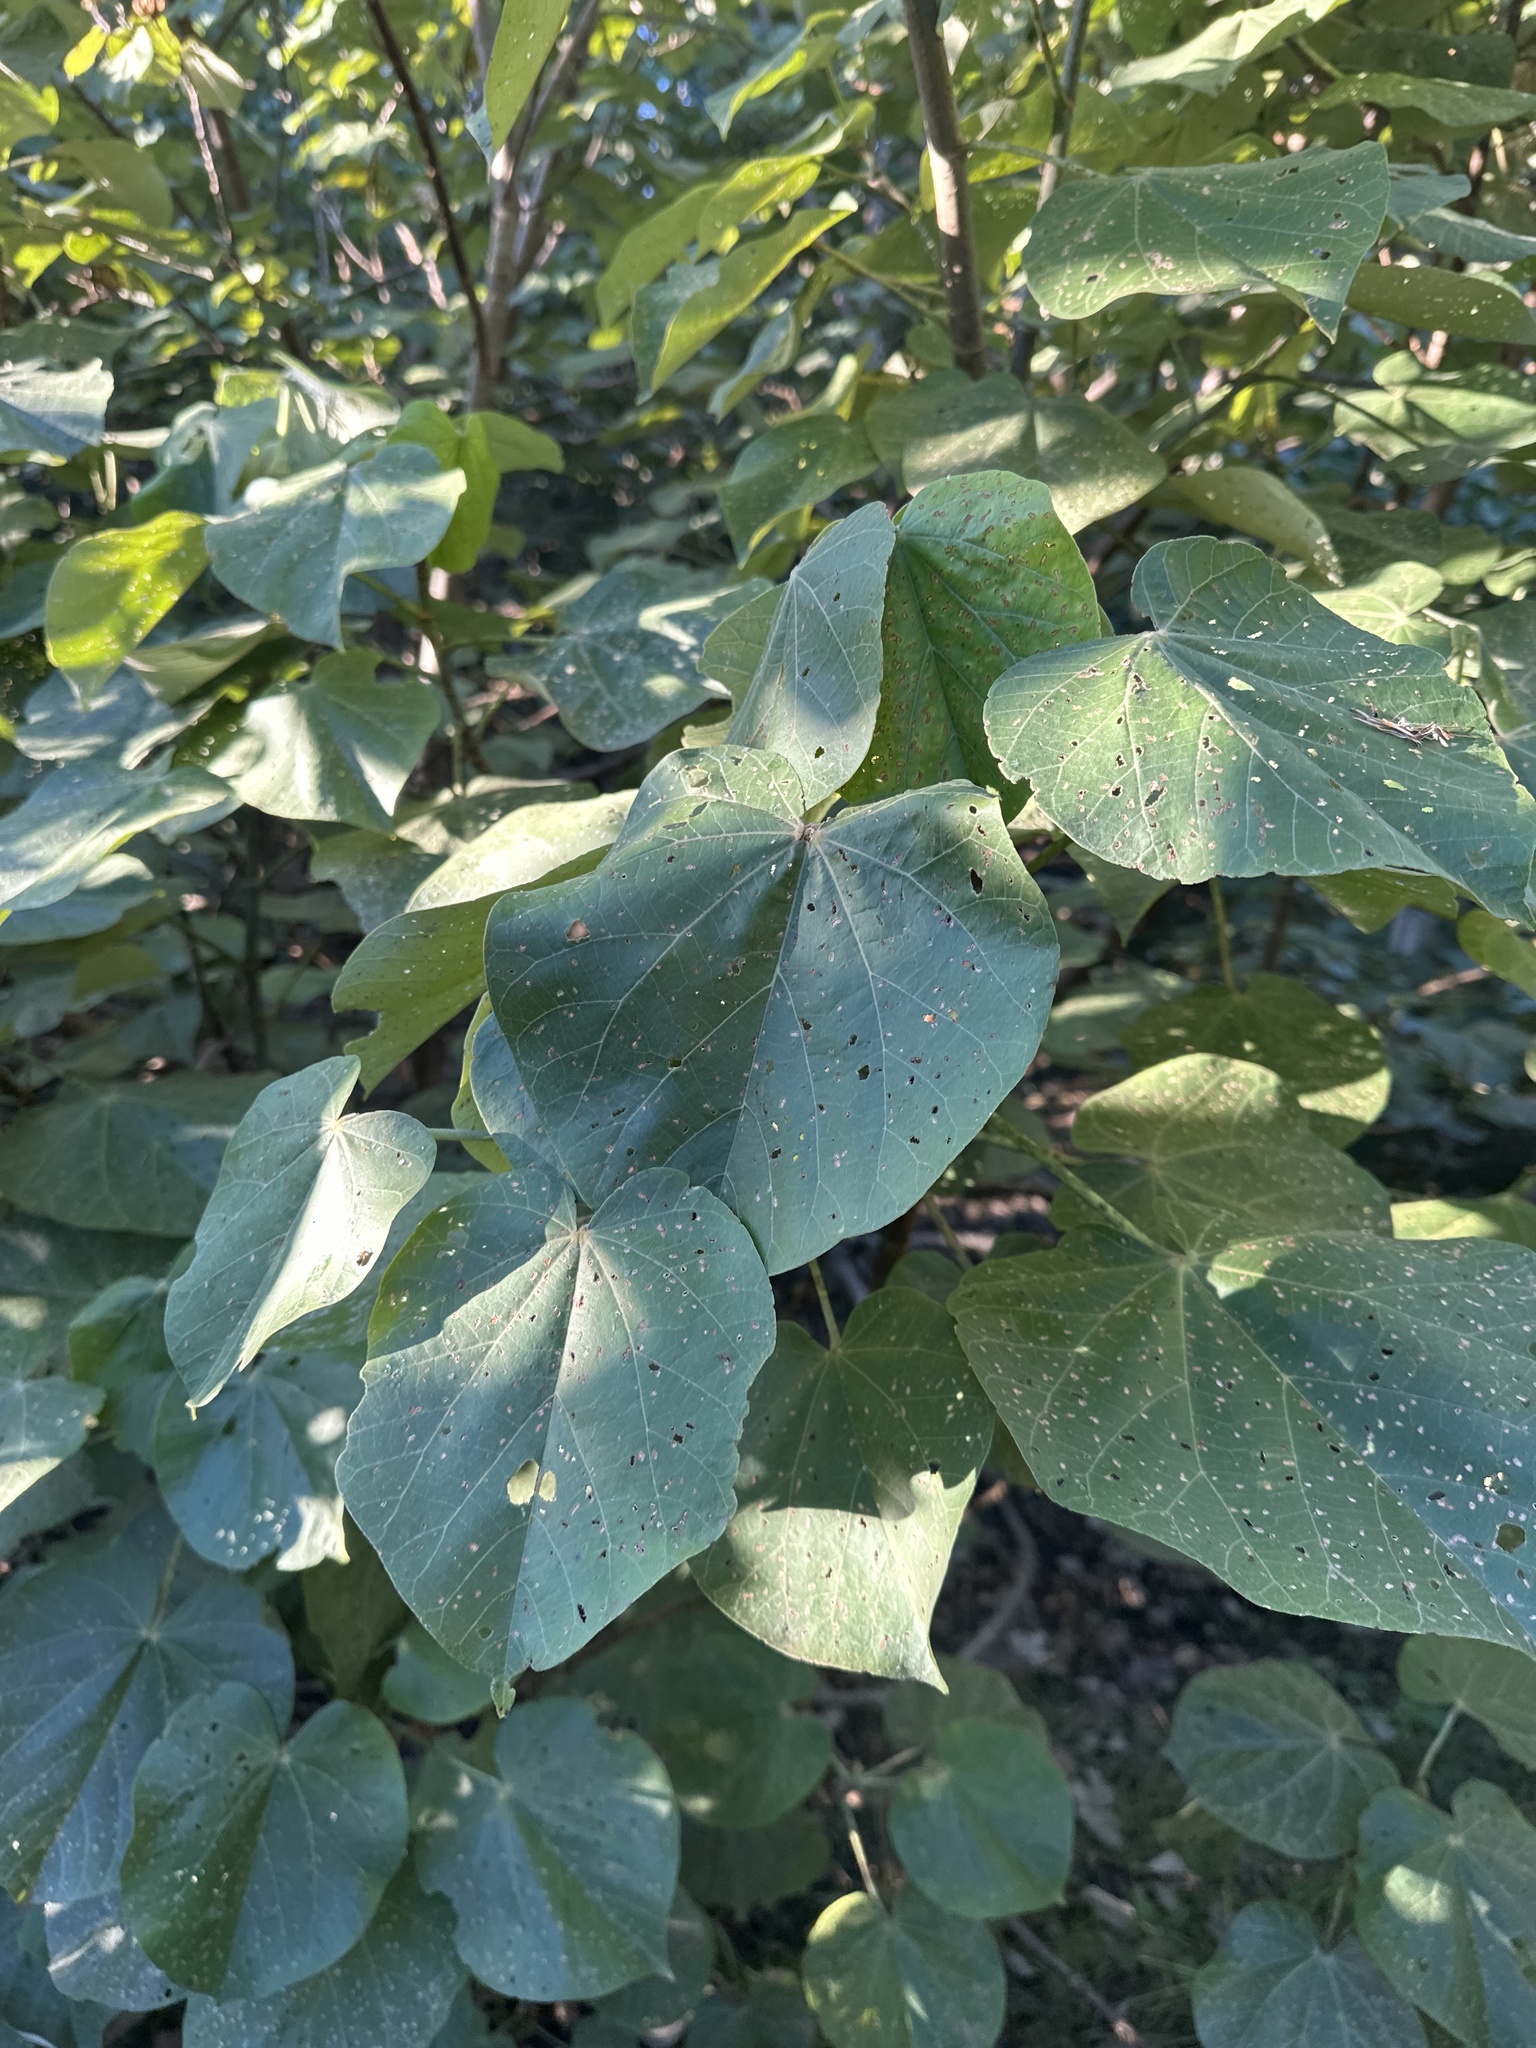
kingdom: Plantae
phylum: Tracheophyta
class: Magnoliopsida
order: Malvales
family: Malvaceae
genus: Talipariti
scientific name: Talipariti tiliaceum
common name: Sea hibiscus
